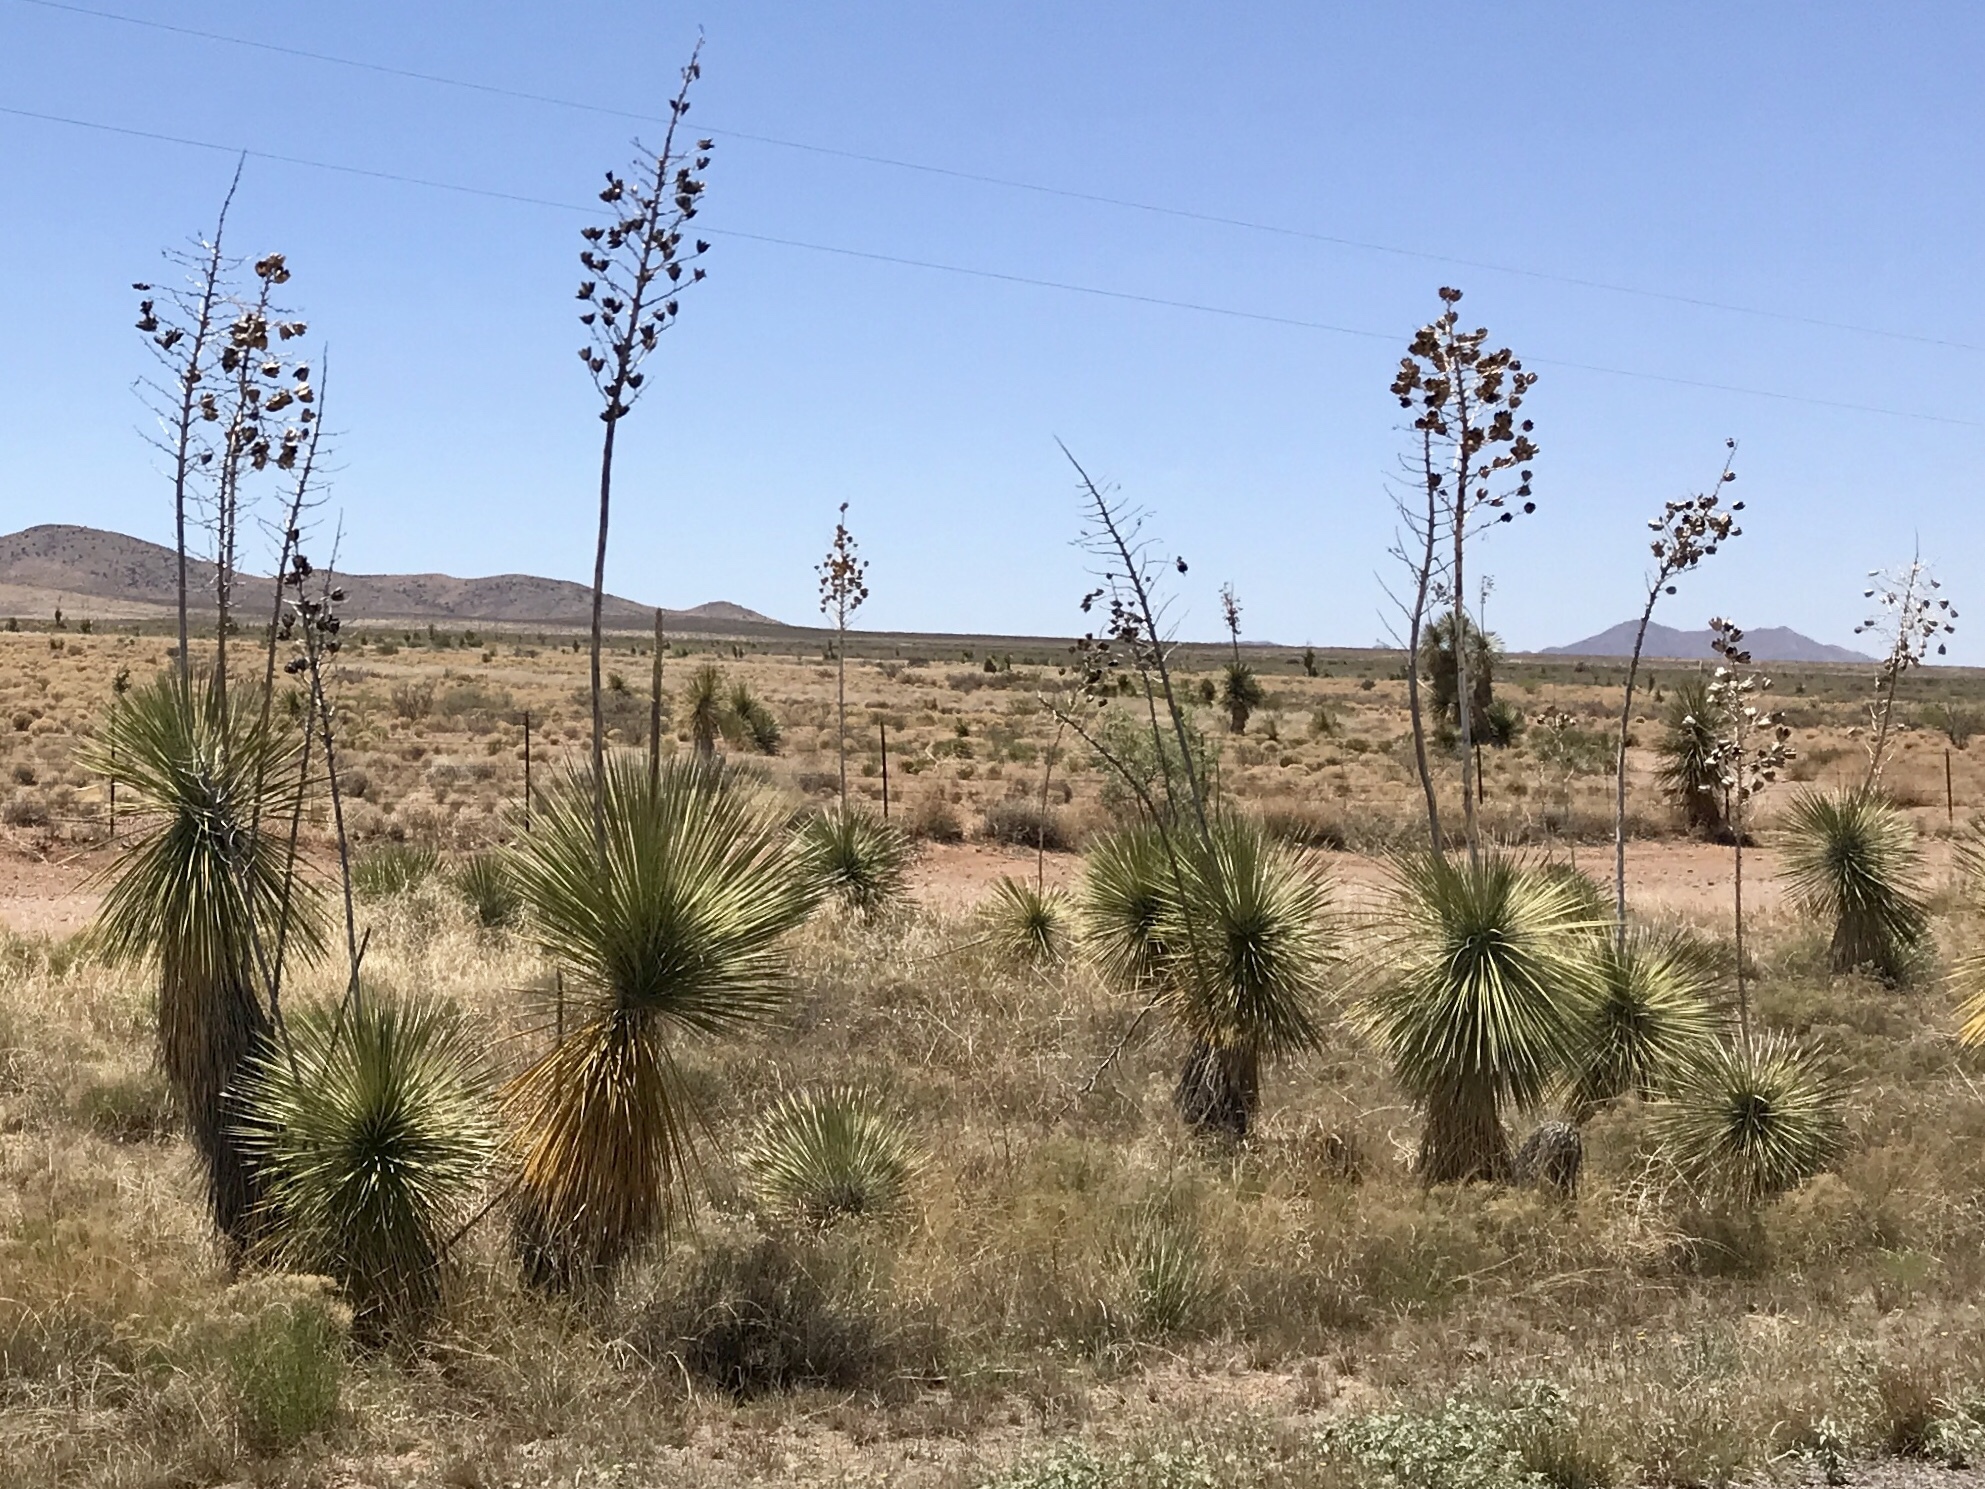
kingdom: Plantae
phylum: Tracheophyta
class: Liliopsida
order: Asparagales
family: Asparagaceae
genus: Yucca
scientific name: Yucca elata
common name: Palmella
